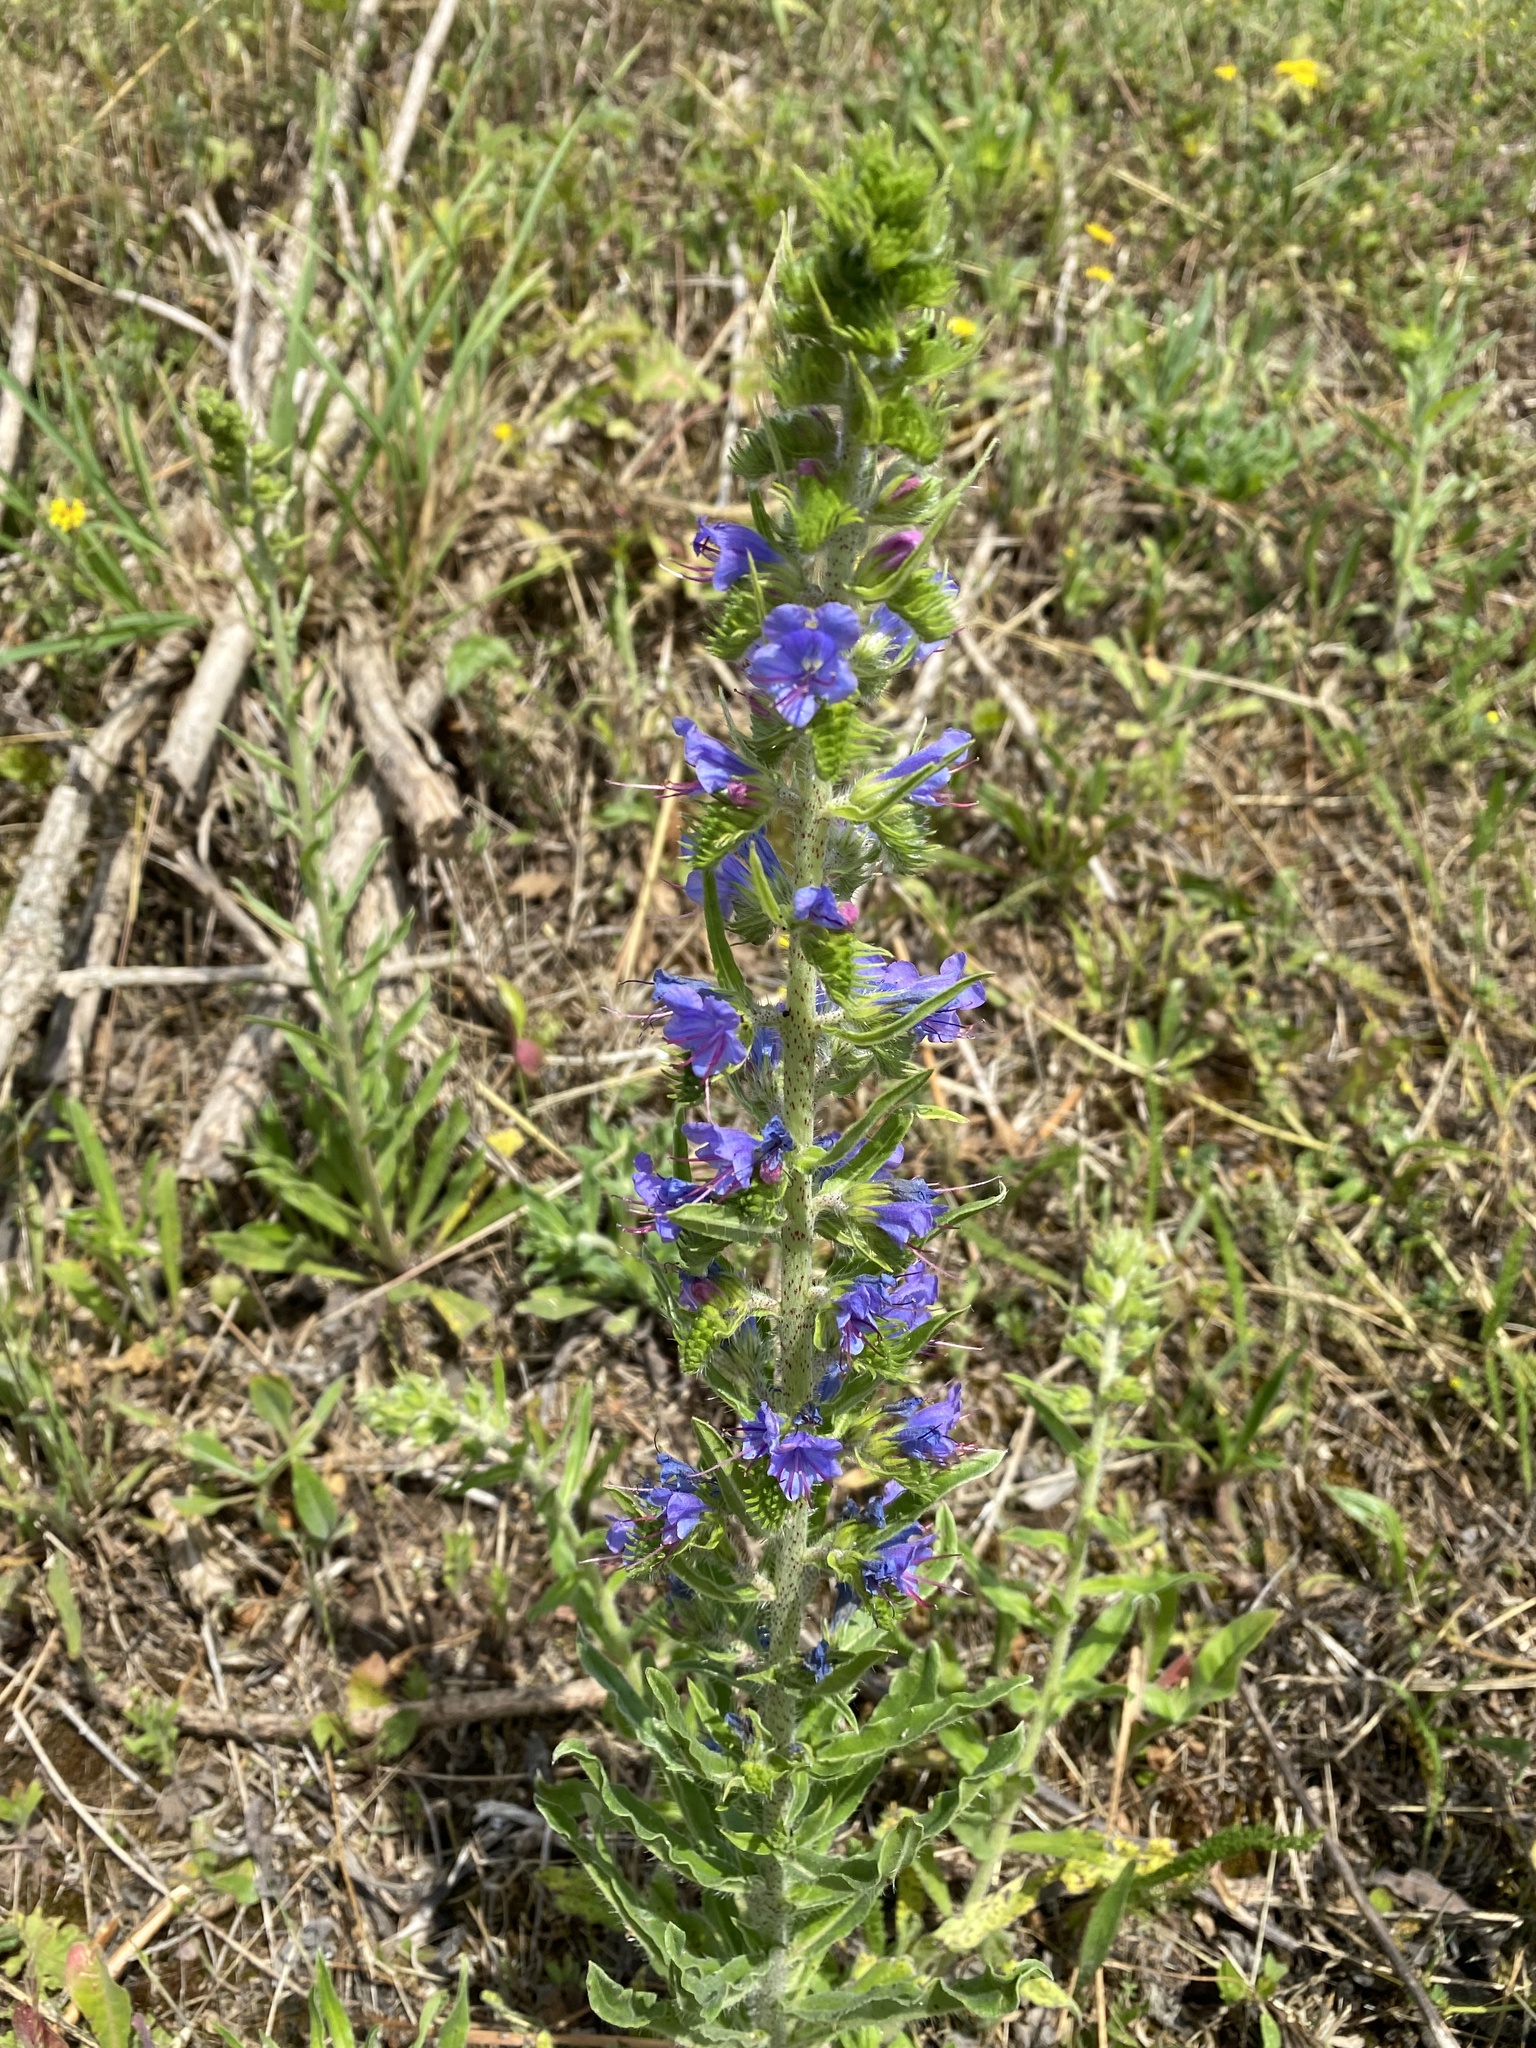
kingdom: Plantae
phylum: Tracheophyta
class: Magnoliopsida
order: Boraginales
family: Boraginaceae
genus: Echium
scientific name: Echium vulgare
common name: Common viper's bugloss
